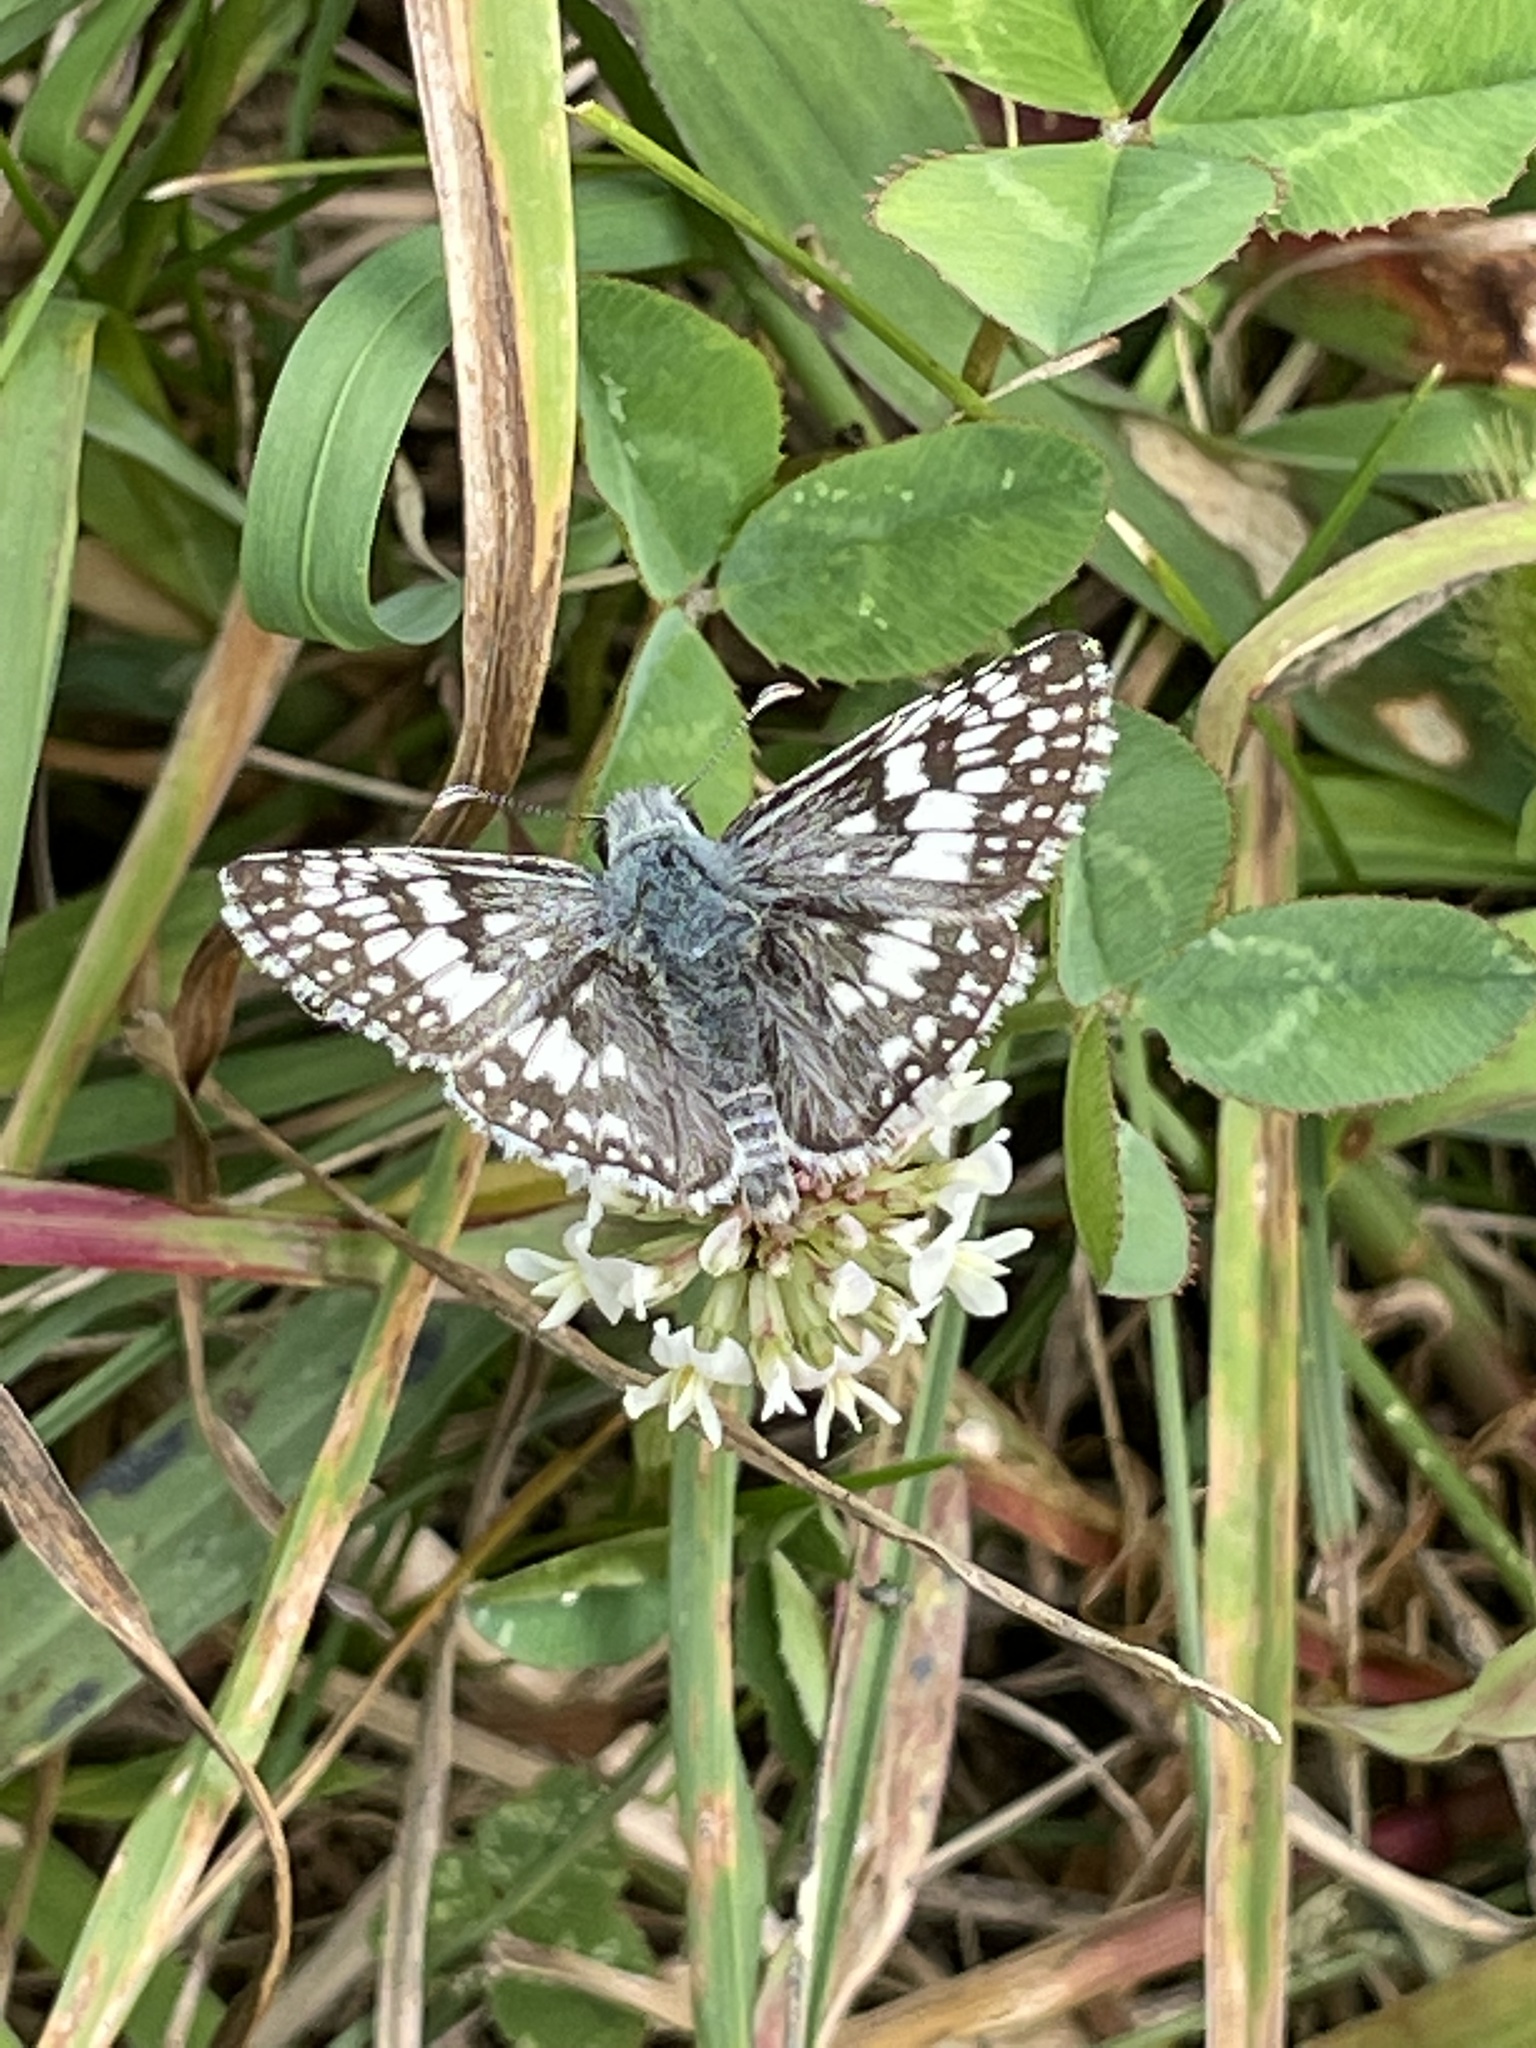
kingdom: Animalia
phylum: Arthropoda
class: Insecta
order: Lepidoptera
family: Hesperiidae
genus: Burnsius
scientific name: Burnsius communis
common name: Common checkered-skipper
